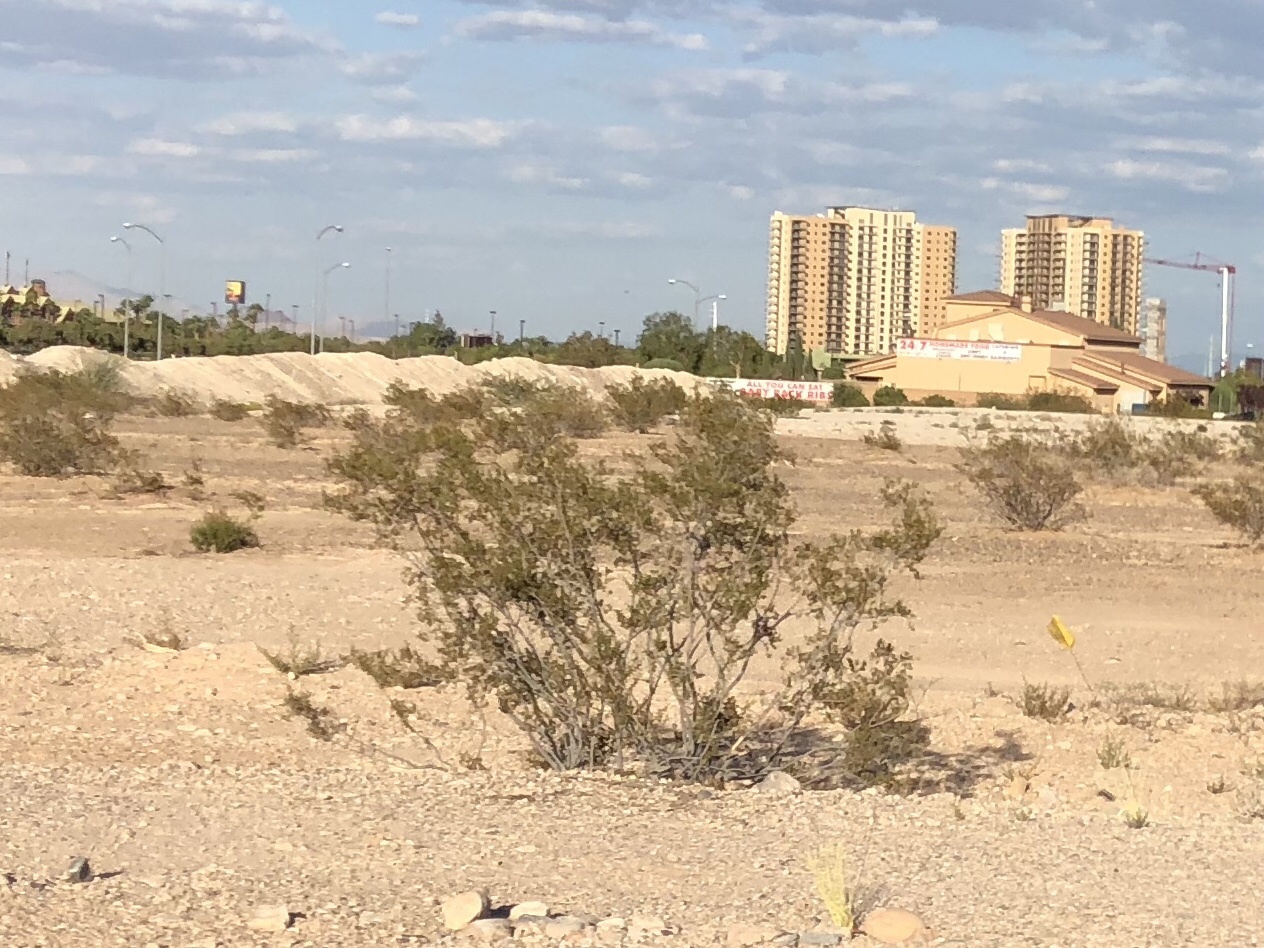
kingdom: Plantae
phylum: Tracheophyta
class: Magnoliopsida
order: Zygophyllales
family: Zygophyllaceae
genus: Larrea
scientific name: Larrea tridentata
